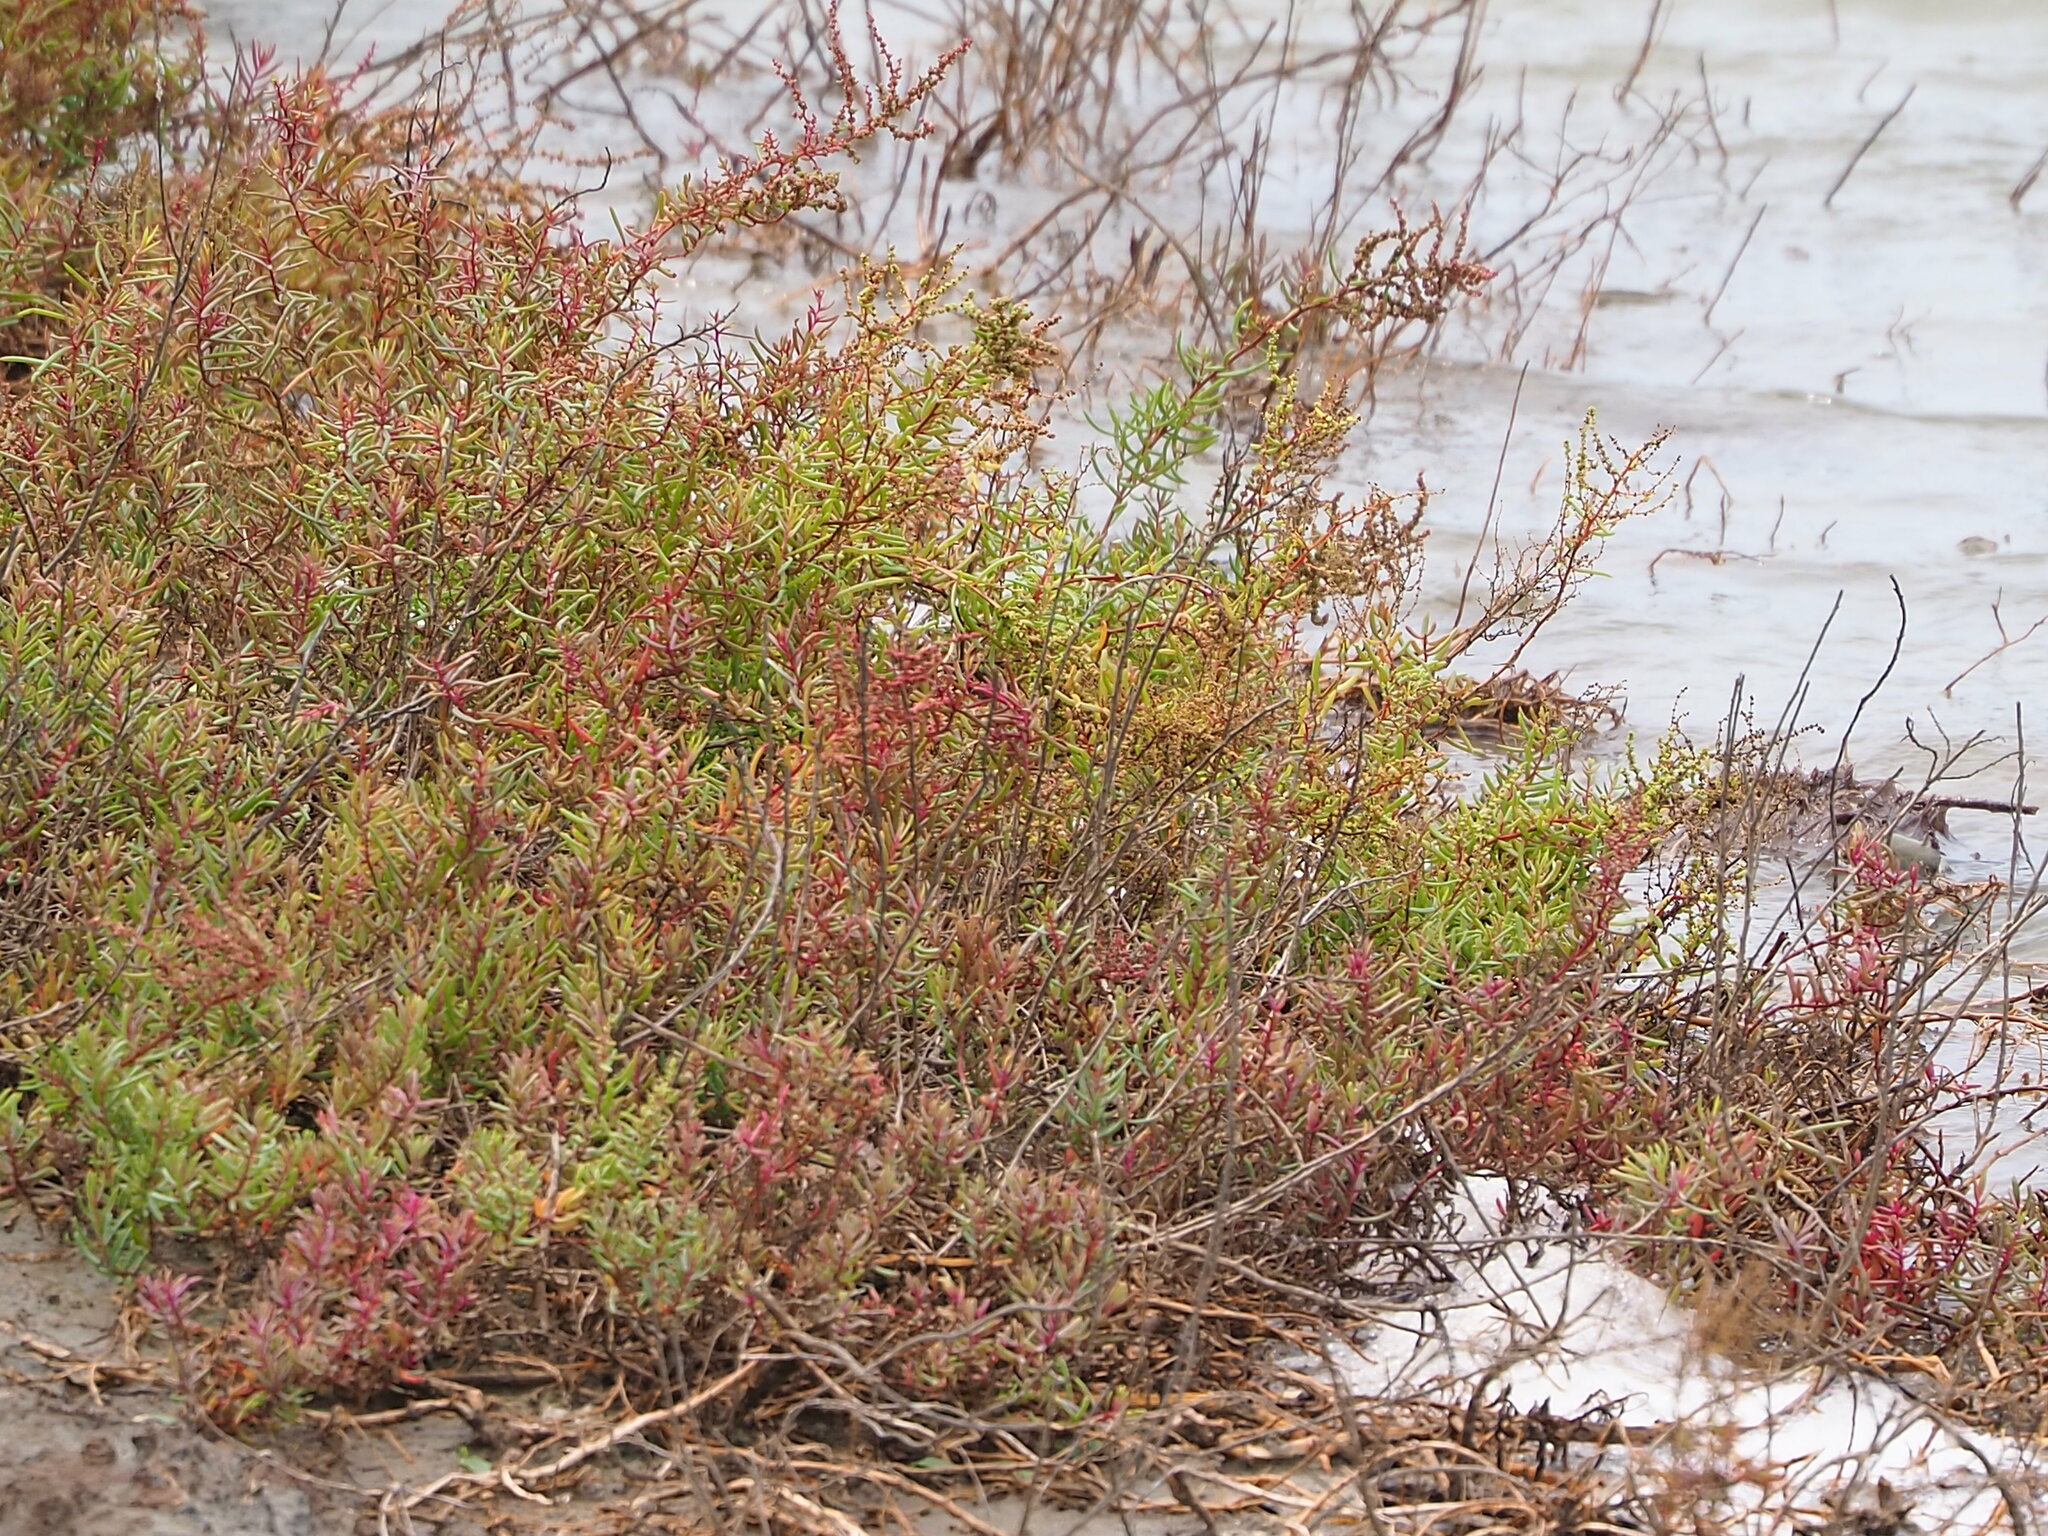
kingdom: Plantae
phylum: Tracheophyta
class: Magnoliopsida
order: Caryophyllales
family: Amaranthaceae
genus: Suaeda
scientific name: Suaeda maritima
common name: Annual sea-blite
